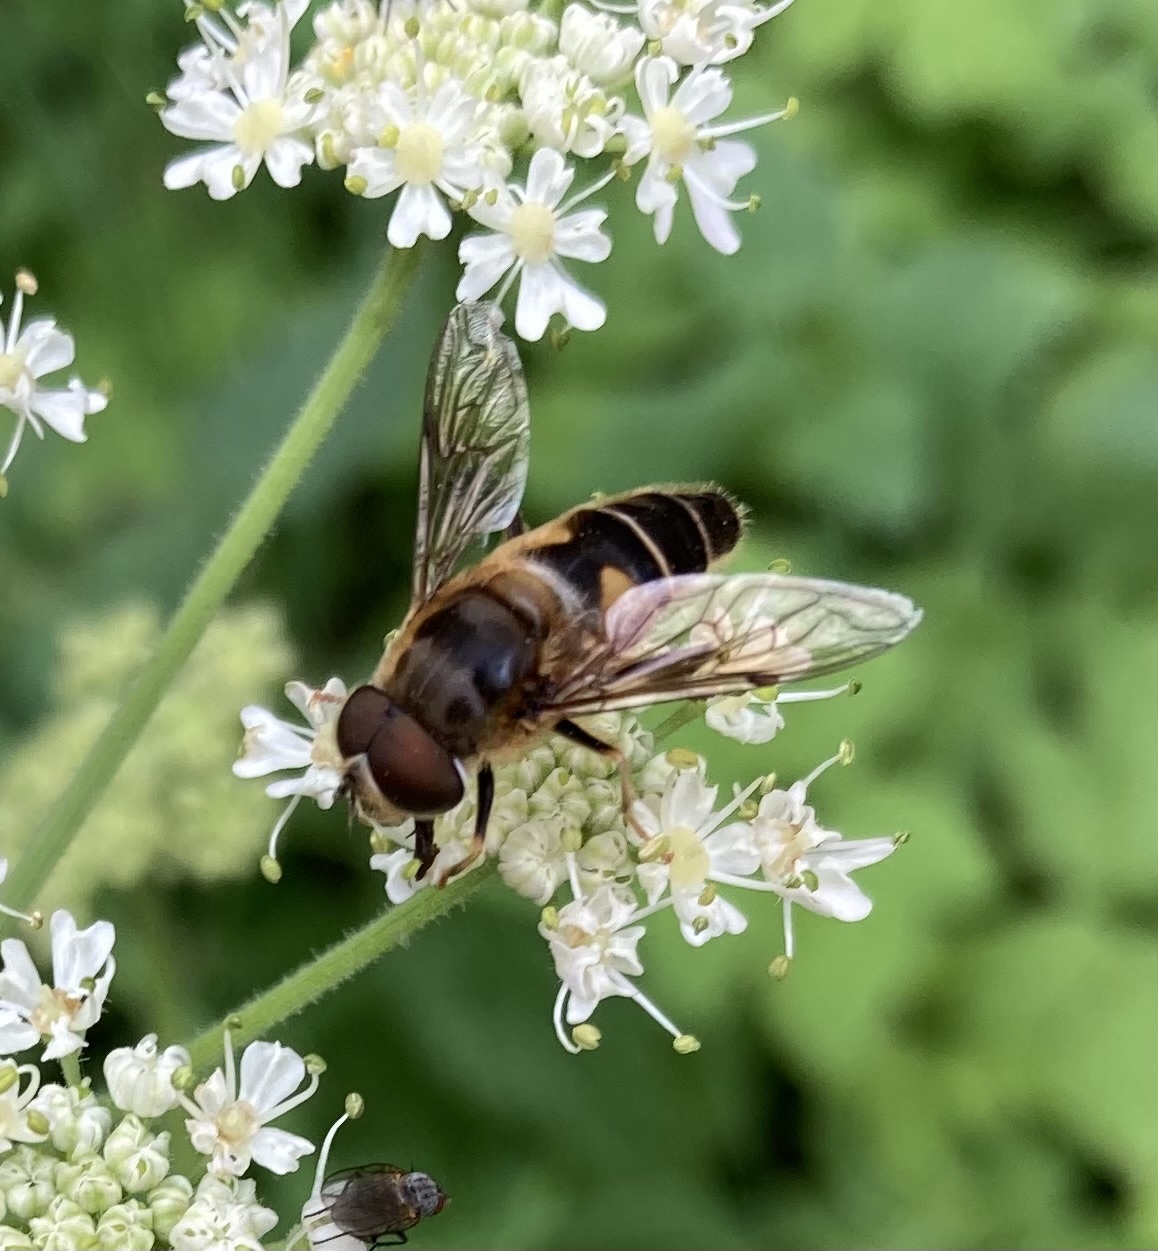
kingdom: Animalia
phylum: Arthropoda
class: Insecta
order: Diptera
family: Syrphidae
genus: Eristalis
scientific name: Eristalis pertinax
